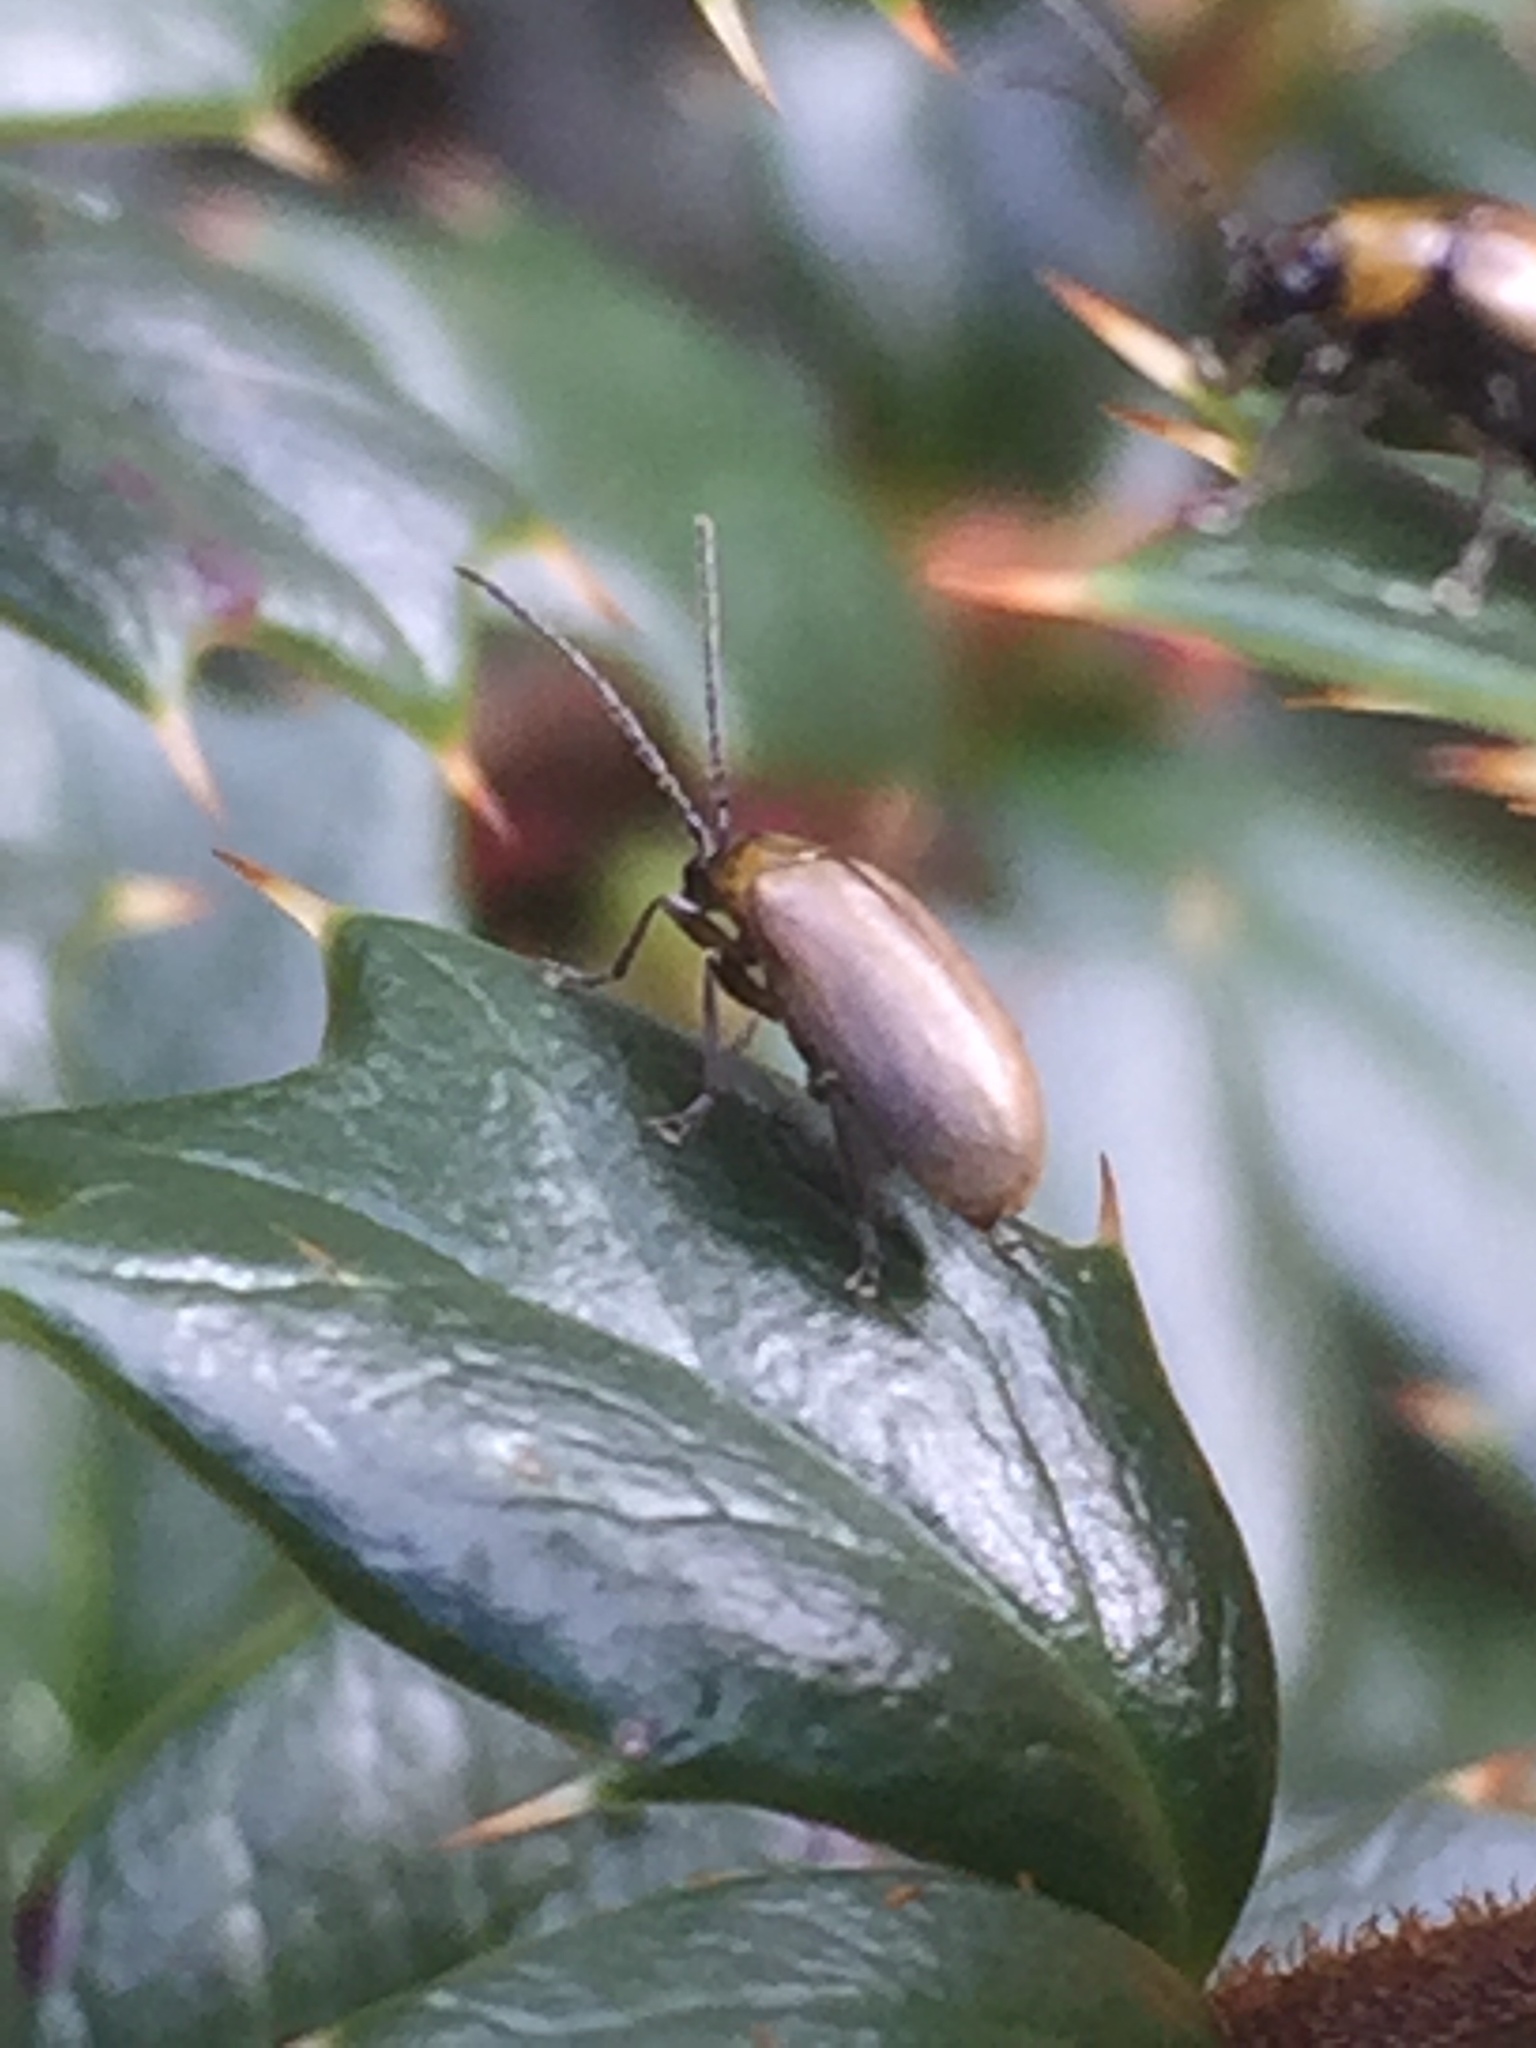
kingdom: Animalia
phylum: Arthropoda
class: Insecta
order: Coleoptera
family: Chrysomelidae
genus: Adoxia
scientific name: Adoxia
